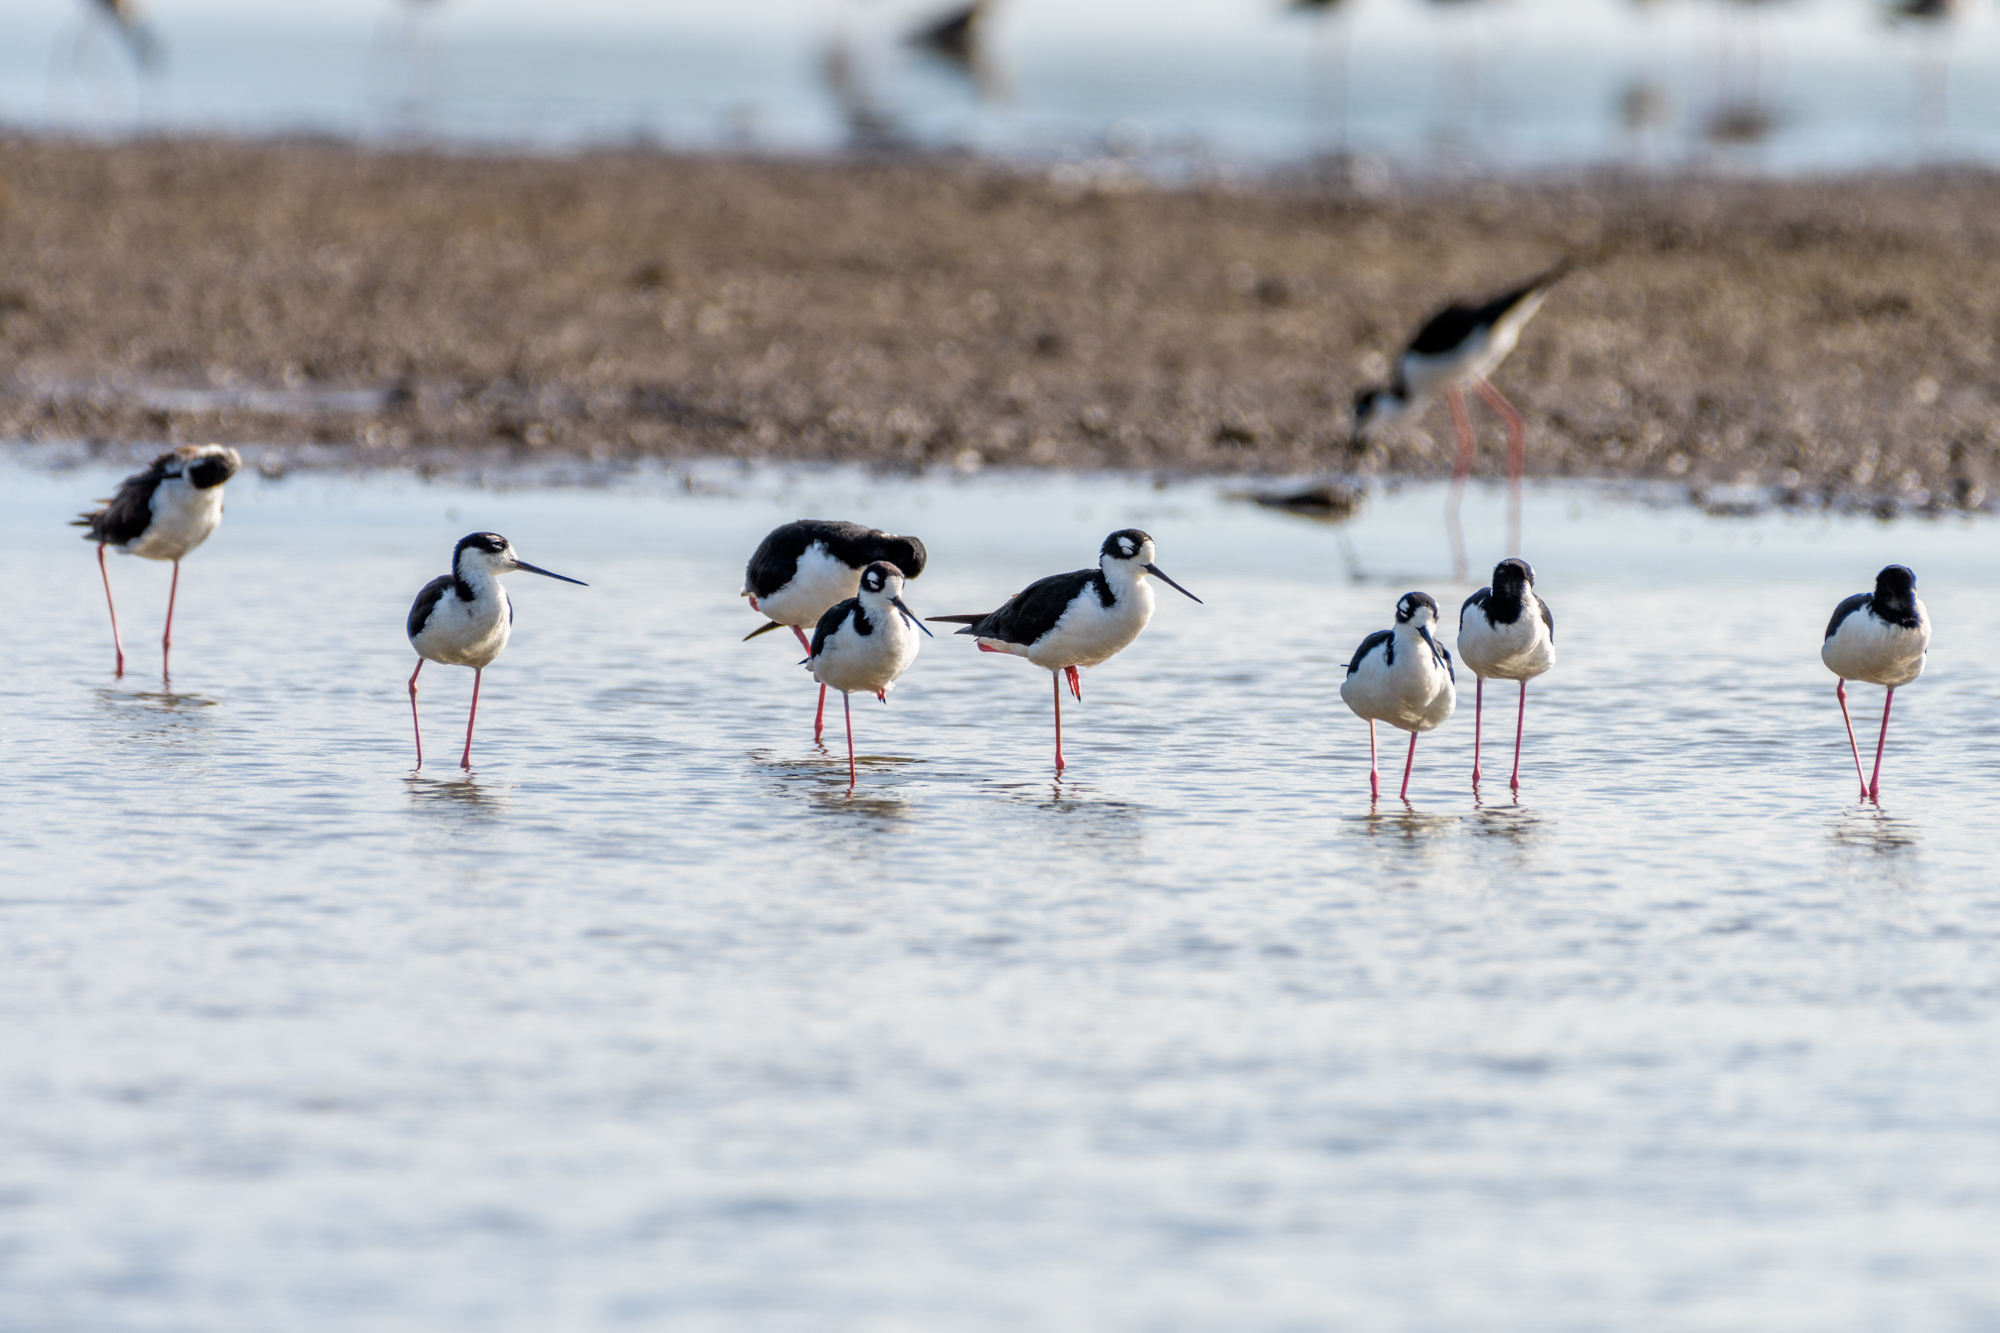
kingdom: Animalia
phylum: Chordata
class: Aves
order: Charadriiformes
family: Recurvirostridae
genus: Himantopus
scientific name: Himantopus mexicanus
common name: Black-necked stilt
